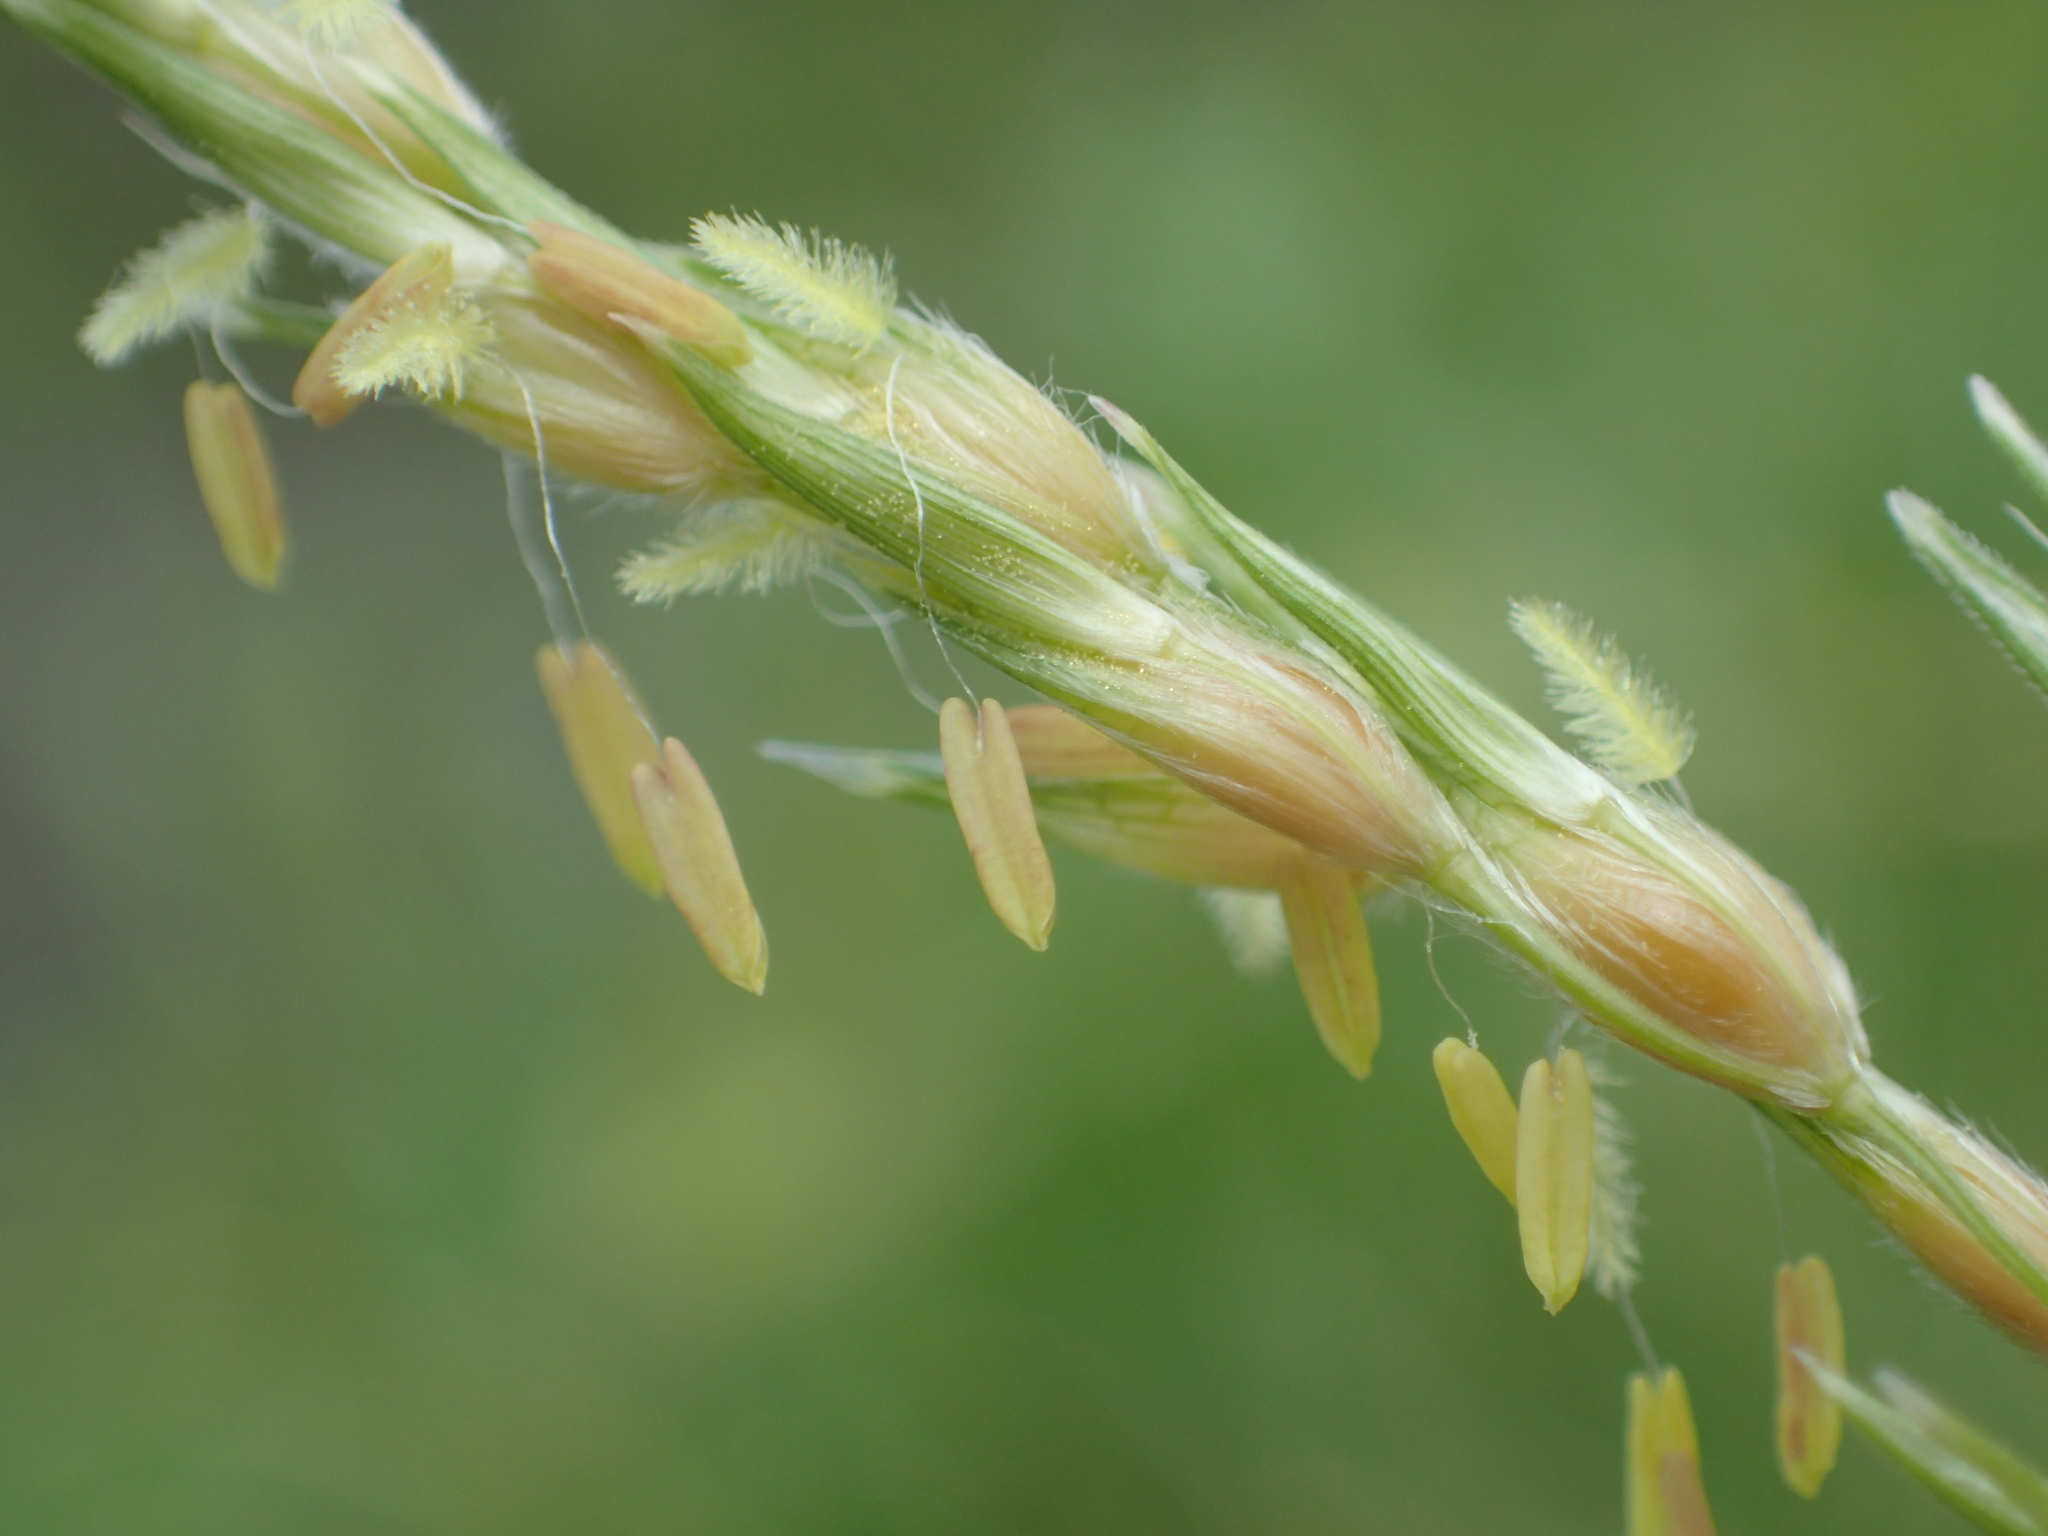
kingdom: Plantae
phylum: Tracheophyta
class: Liliopsida
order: Poales
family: Poaceae
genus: Sorghum
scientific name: Sorghum arundinaceum
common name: Sorghum
